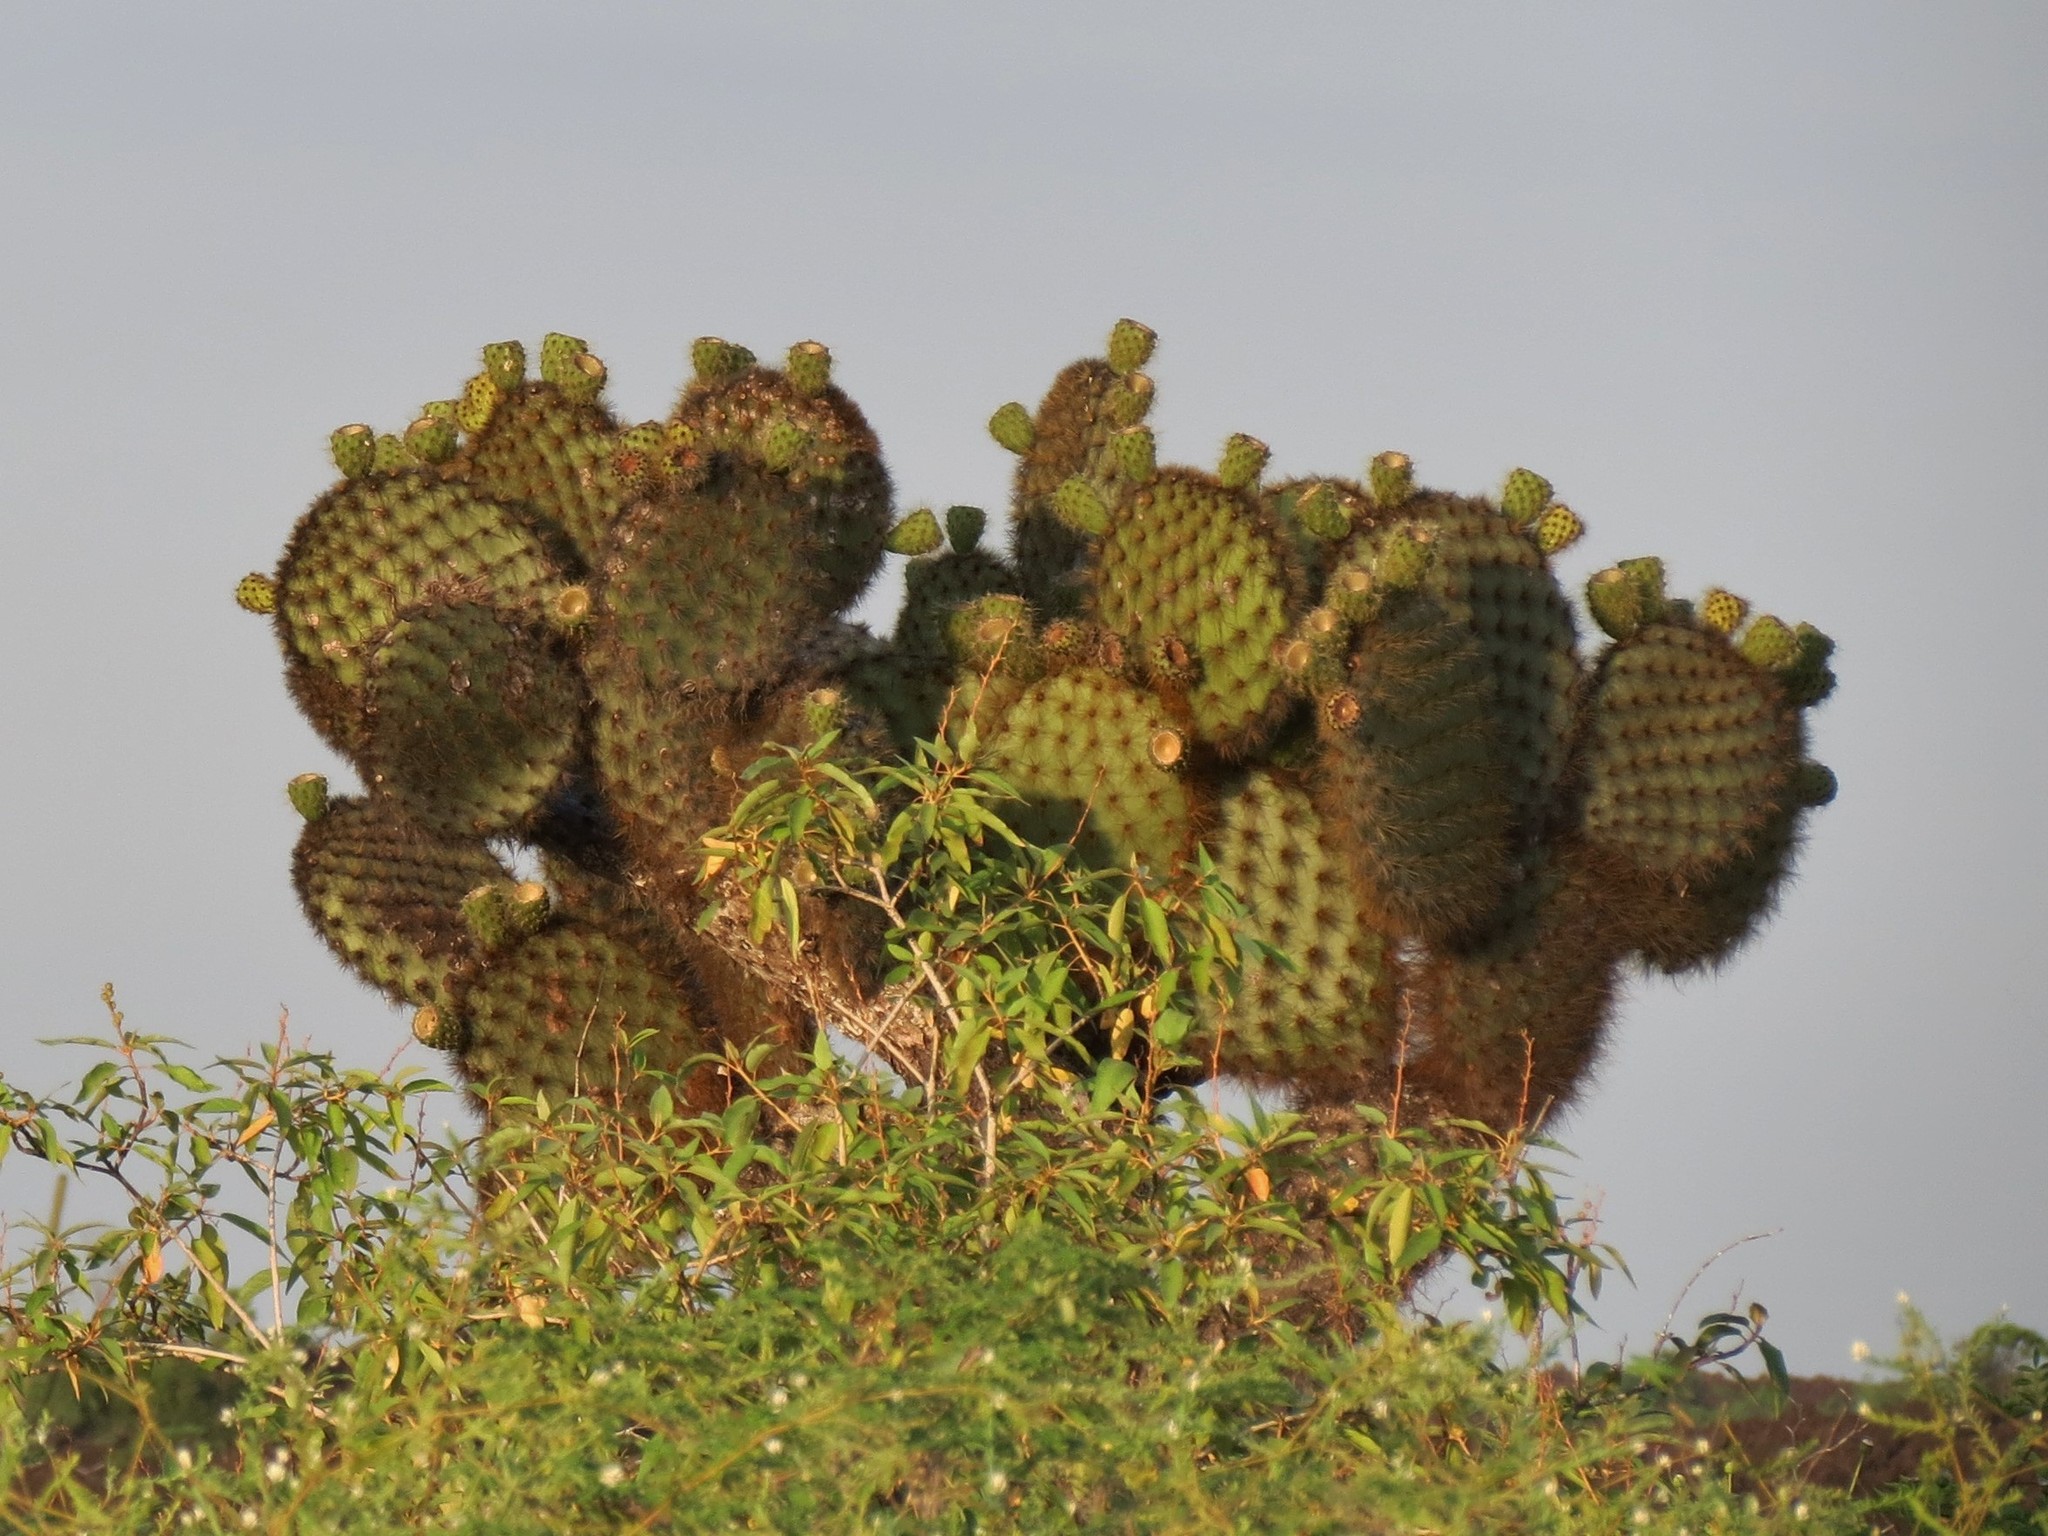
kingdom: Plantae
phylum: Tracheophyta
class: Magnoliopsida
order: Caryophyllales
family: Cactaceae
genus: Opuntia
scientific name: Opuntia galapageia
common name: Galápagos prickly pear
